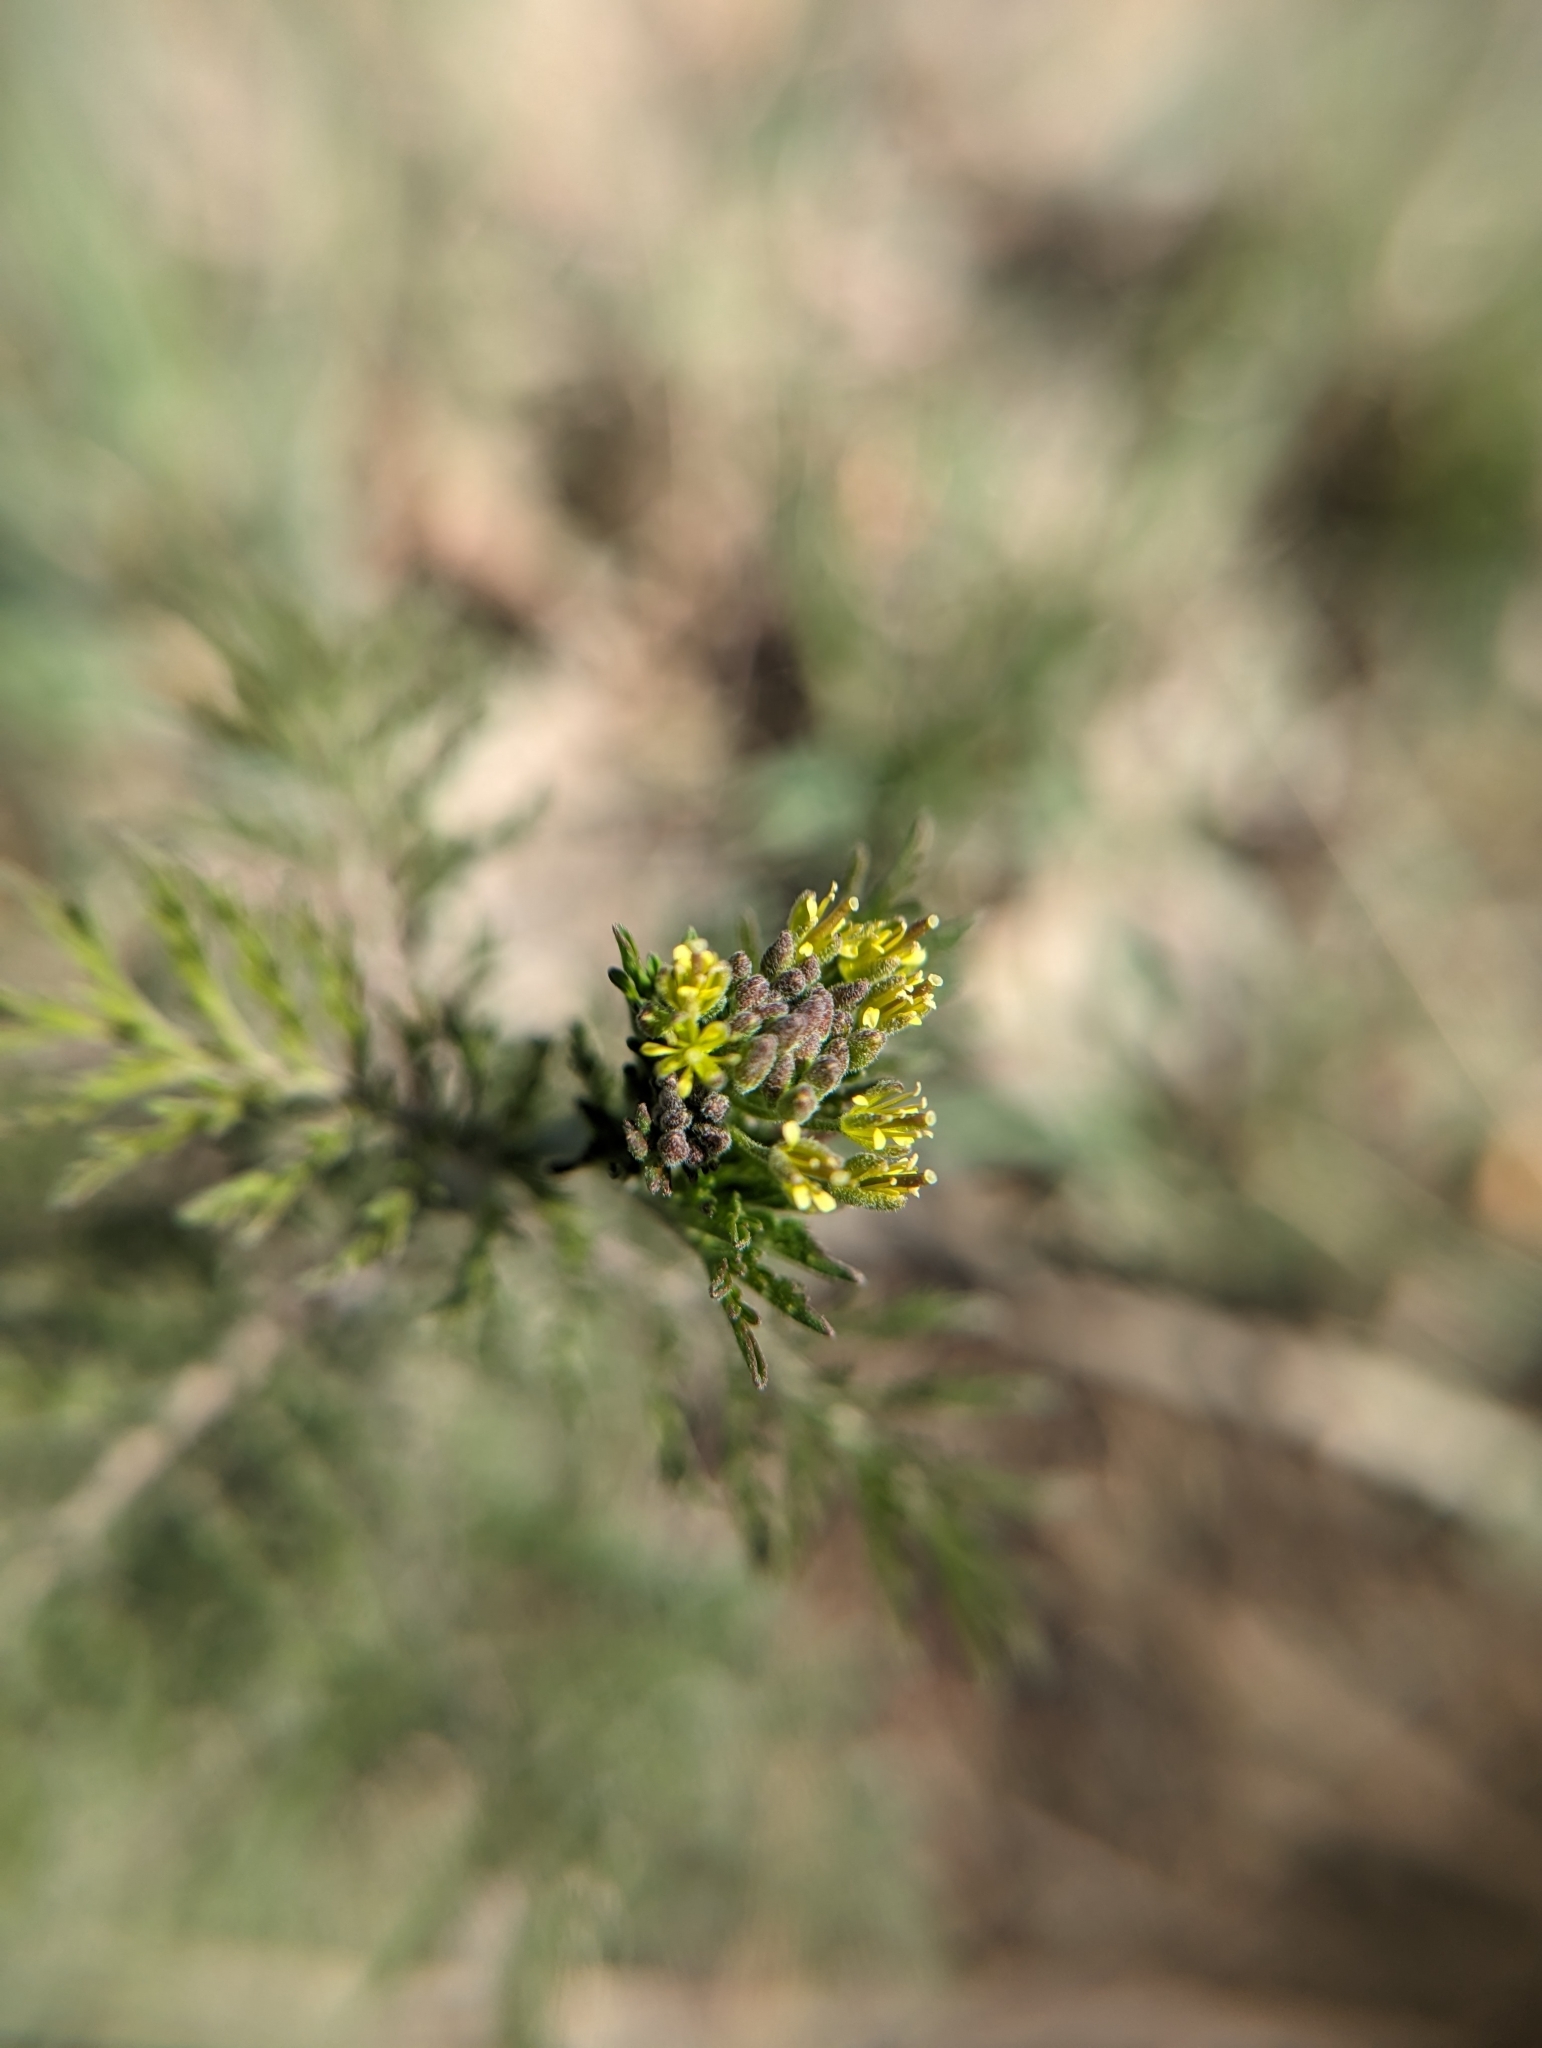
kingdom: Plantae
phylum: Tracheophyta
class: Magnoliopsida
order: Brassicales
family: Brassicaceae
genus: Descurainia
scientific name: Descurainia sophia
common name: Flixweed
